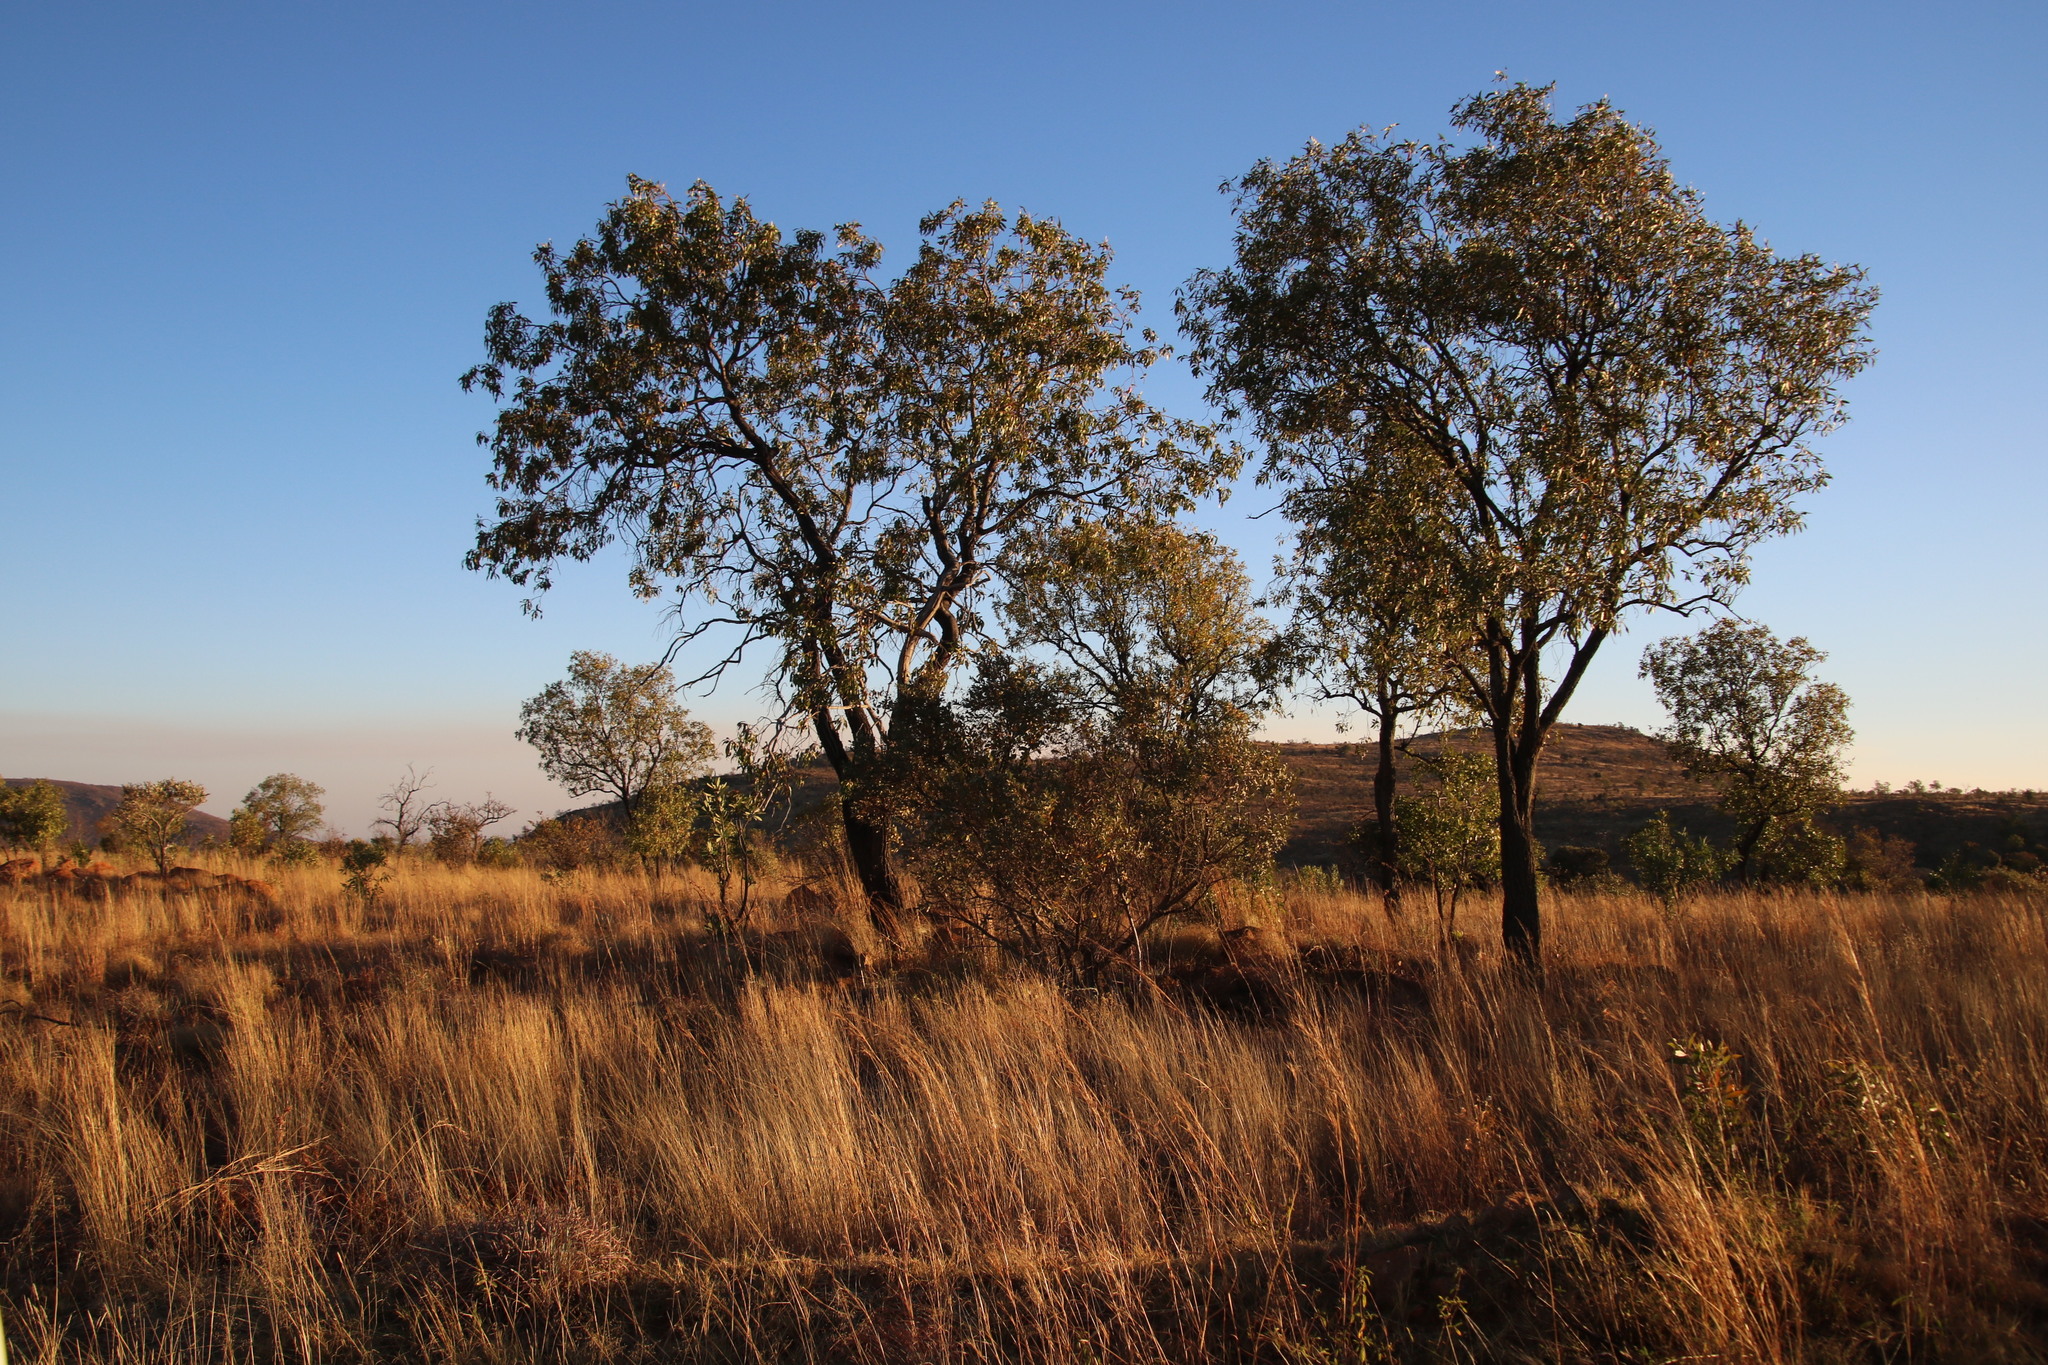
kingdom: Plantae
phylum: Tracheophyta
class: Magnoliopsida
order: Proteales
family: Proteaceae
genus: Faurea
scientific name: Faurea saligna
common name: African bean
